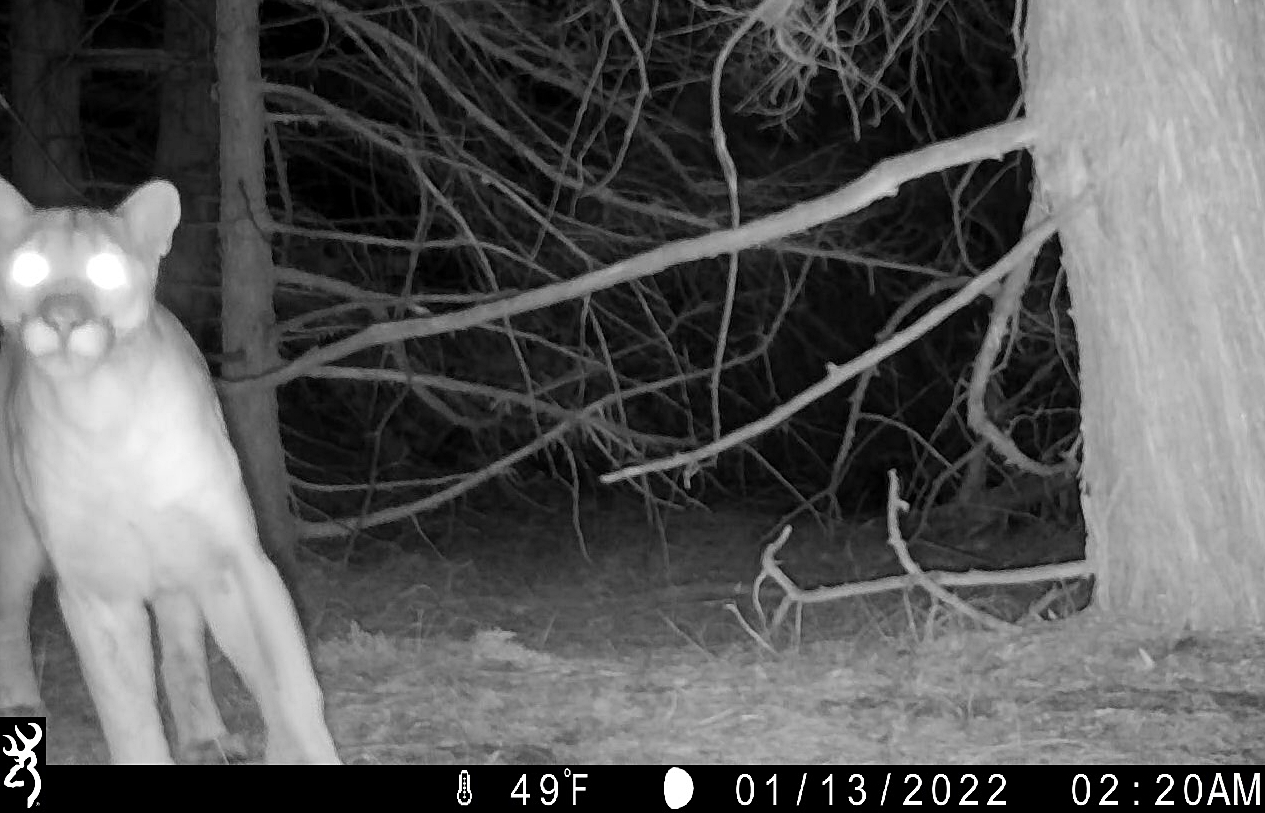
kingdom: Animalia
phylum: Chordata
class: Mammalia
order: Carnivora
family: Felidae
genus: Puma
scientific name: Puma concolor
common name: Puma
